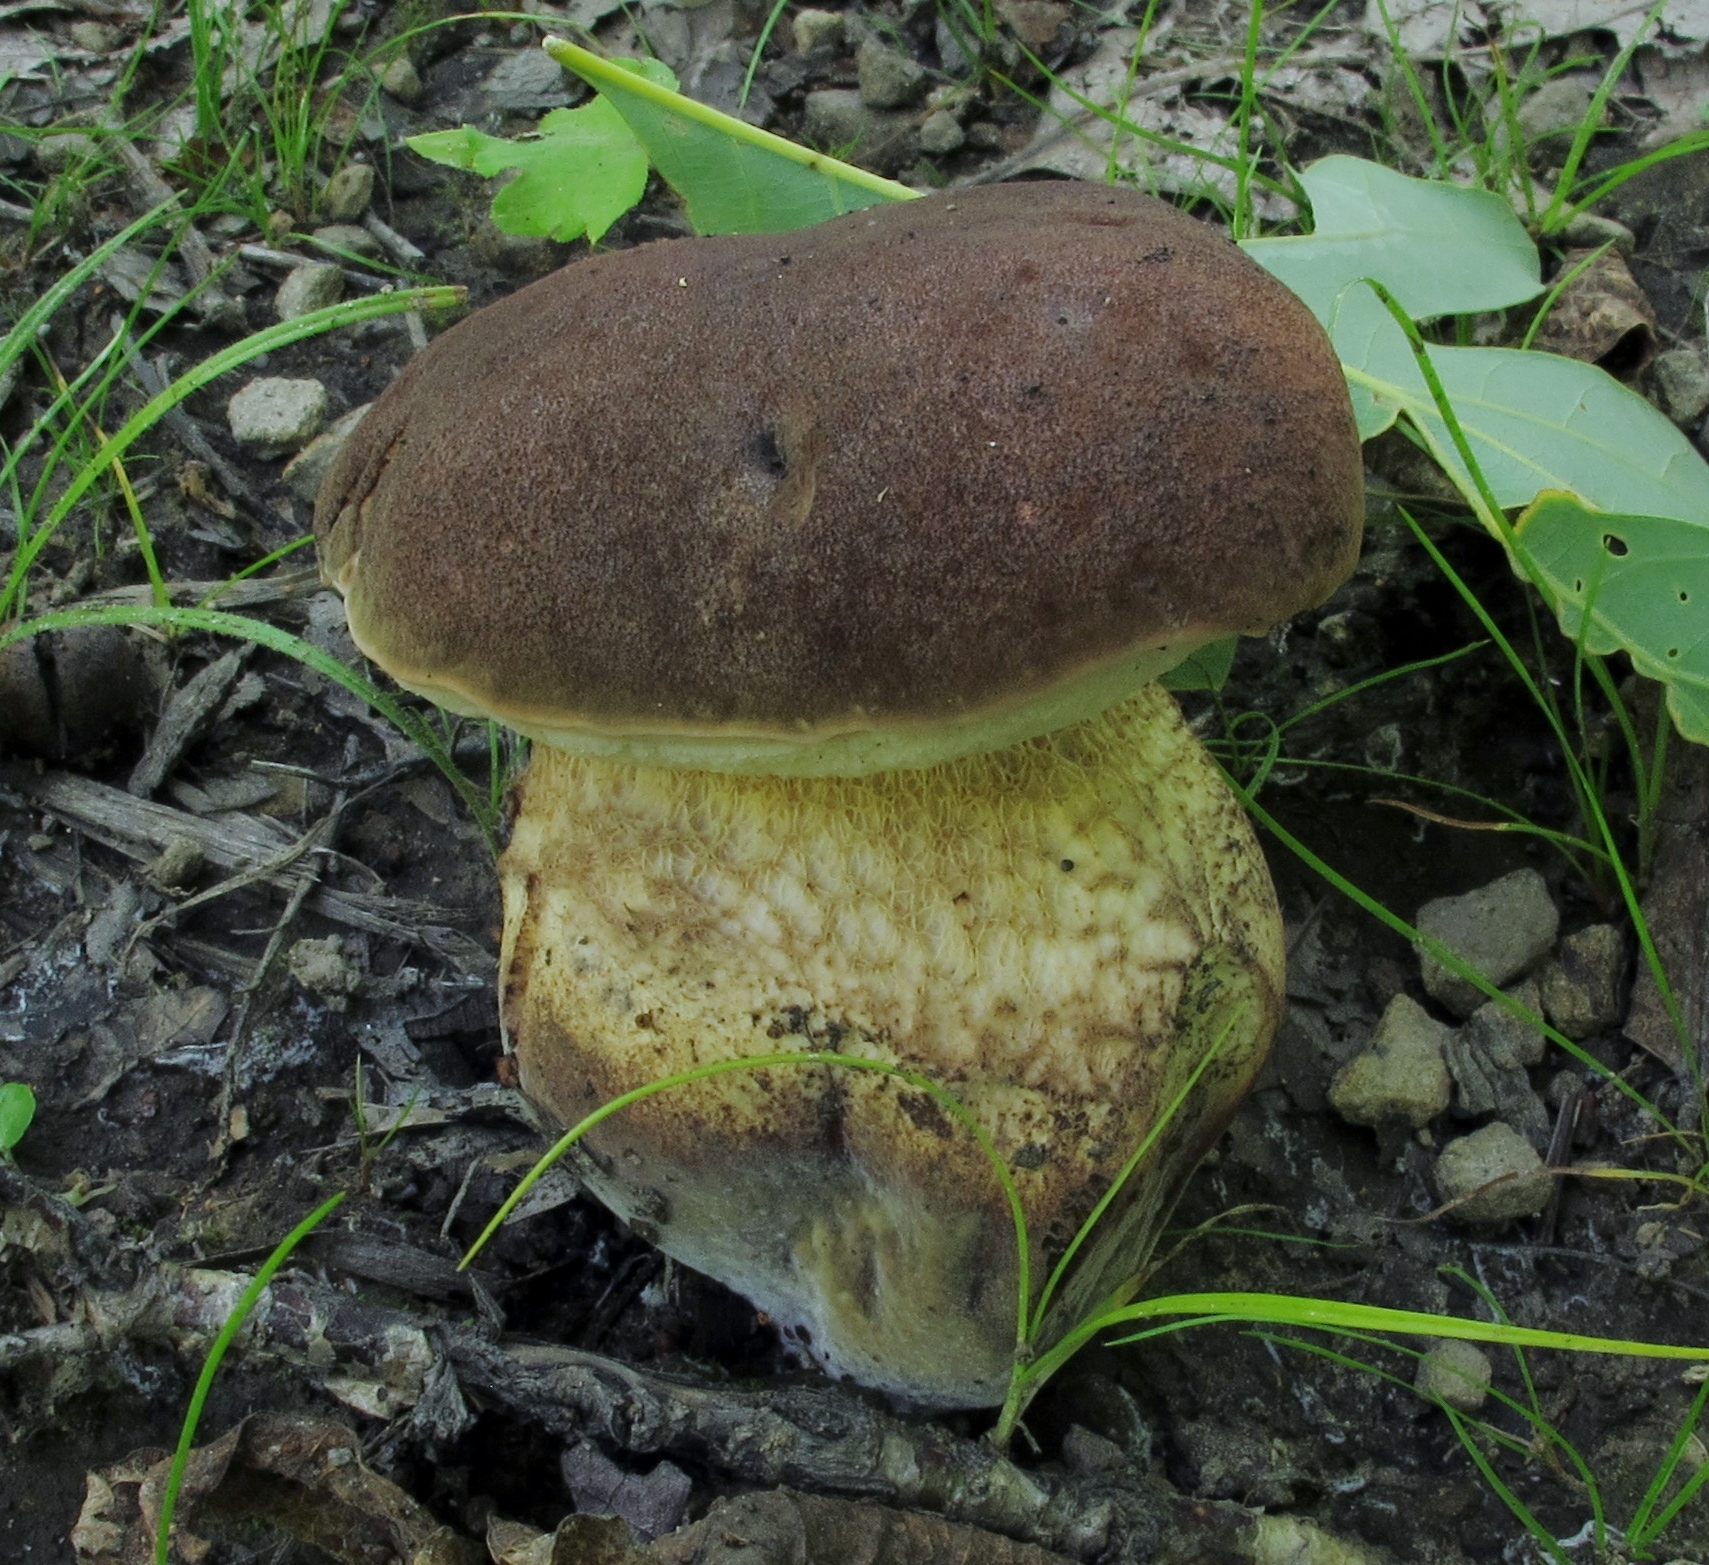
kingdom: Fungi
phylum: Basidiomycota
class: Agaricomycetes
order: Boletales
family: Boletaceae
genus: Boletus
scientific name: Boletus variipes
